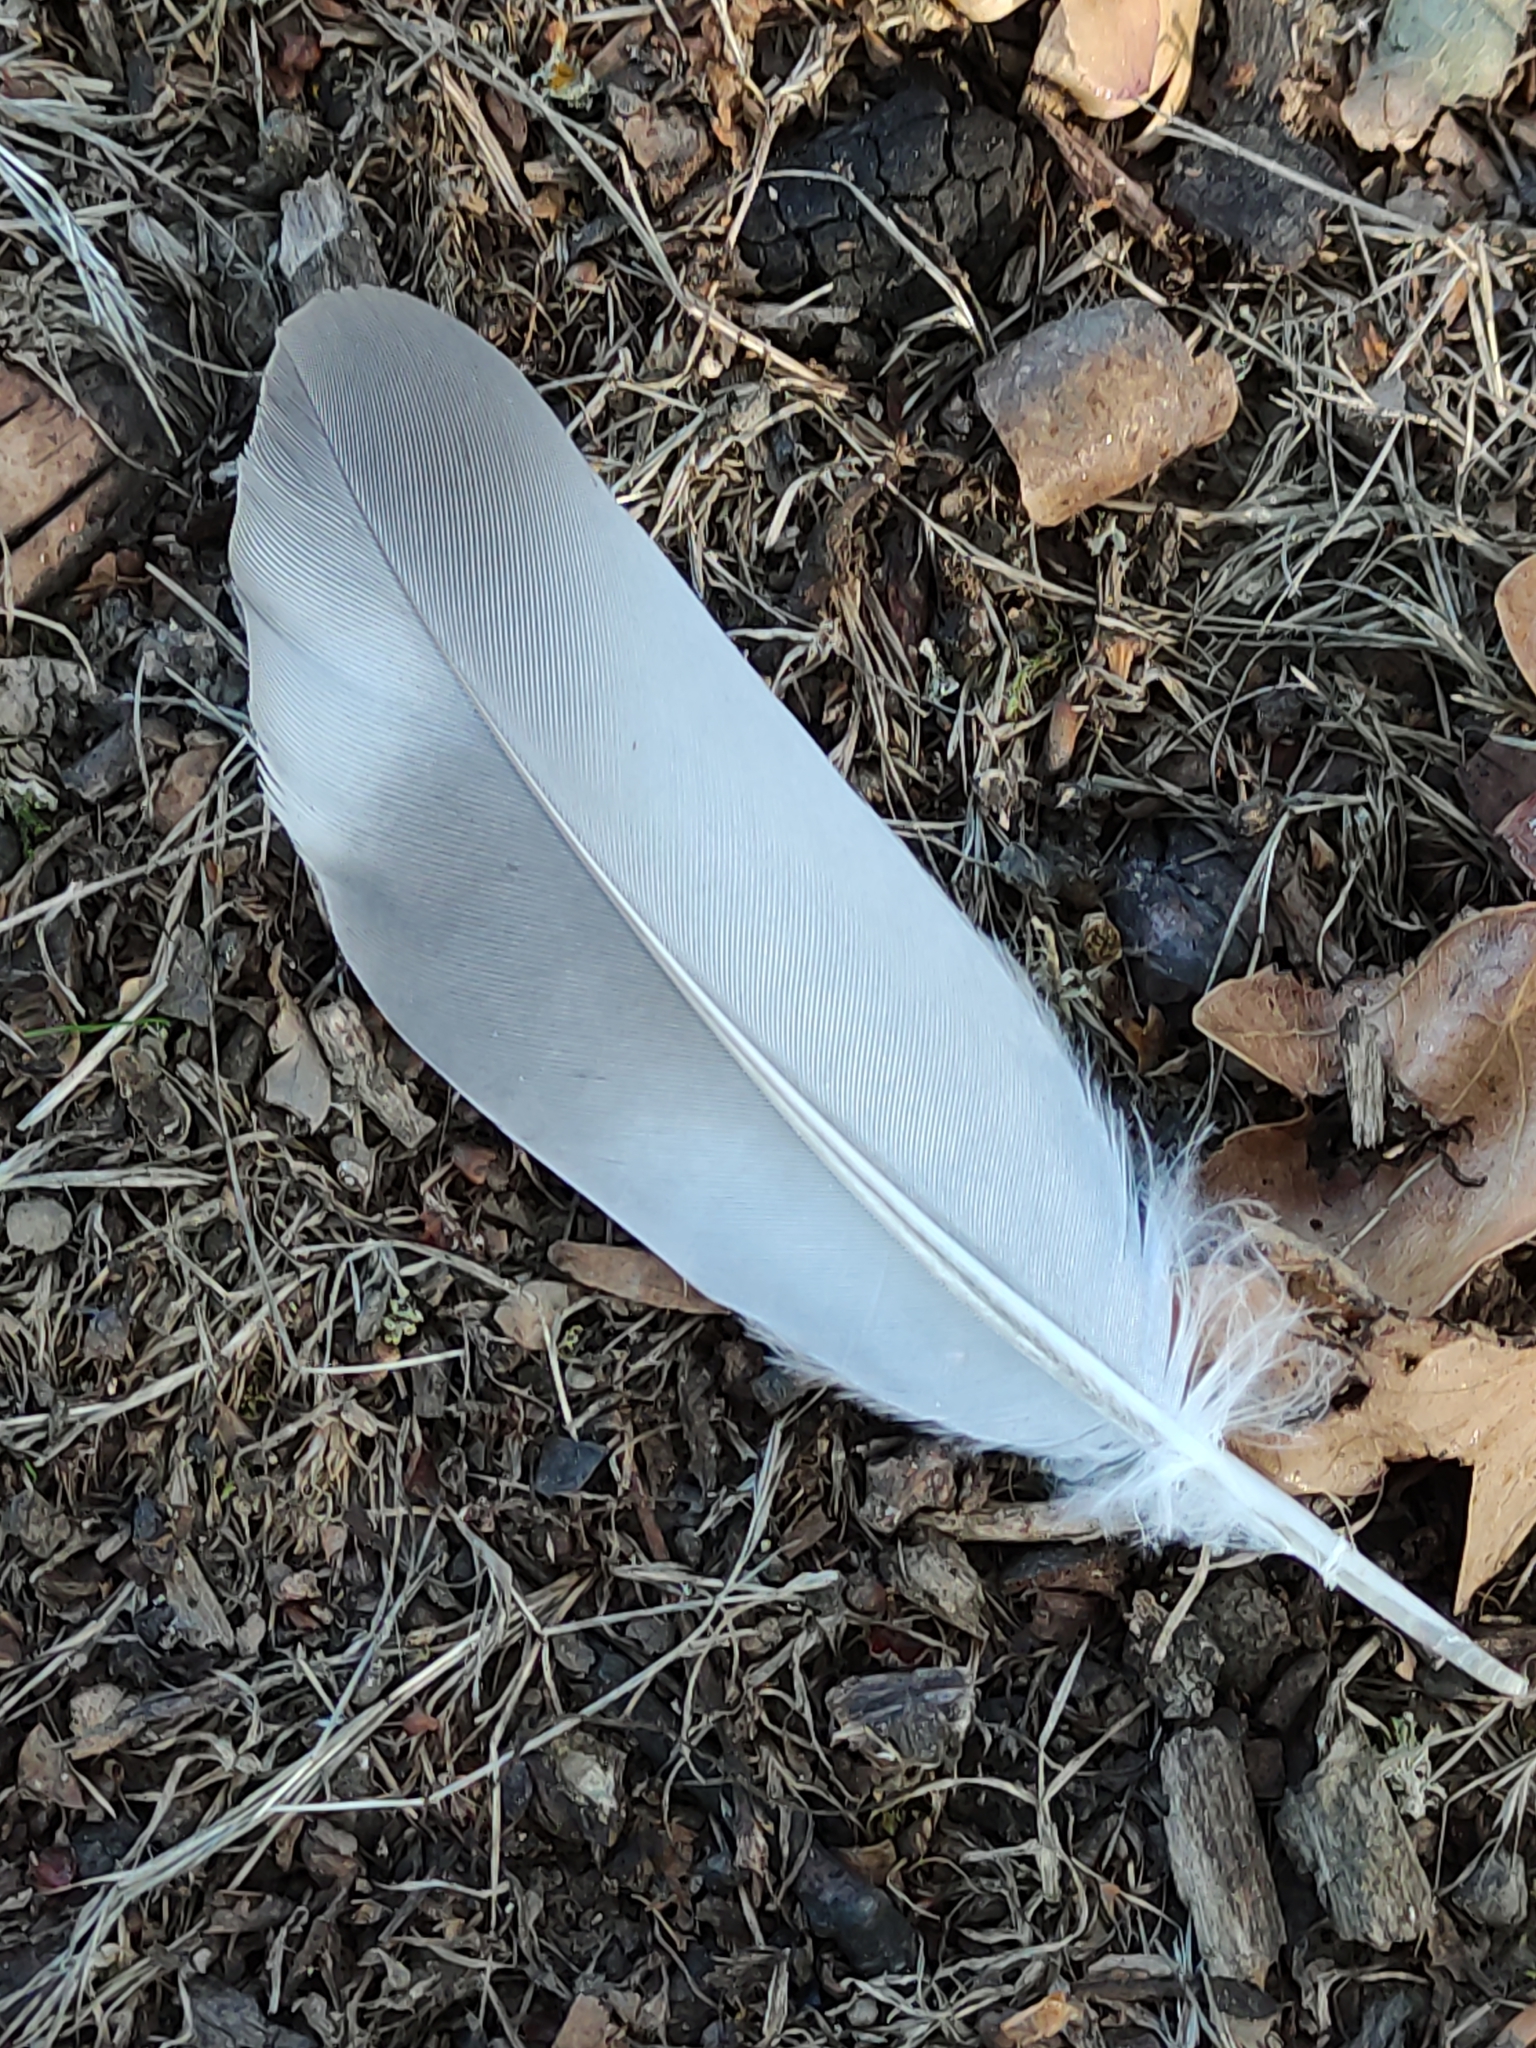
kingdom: Animalia
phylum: Chordata
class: Aves
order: Columbiformes
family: Columbidae
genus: Columba
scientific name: Columba livia
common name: Rock pigeon
